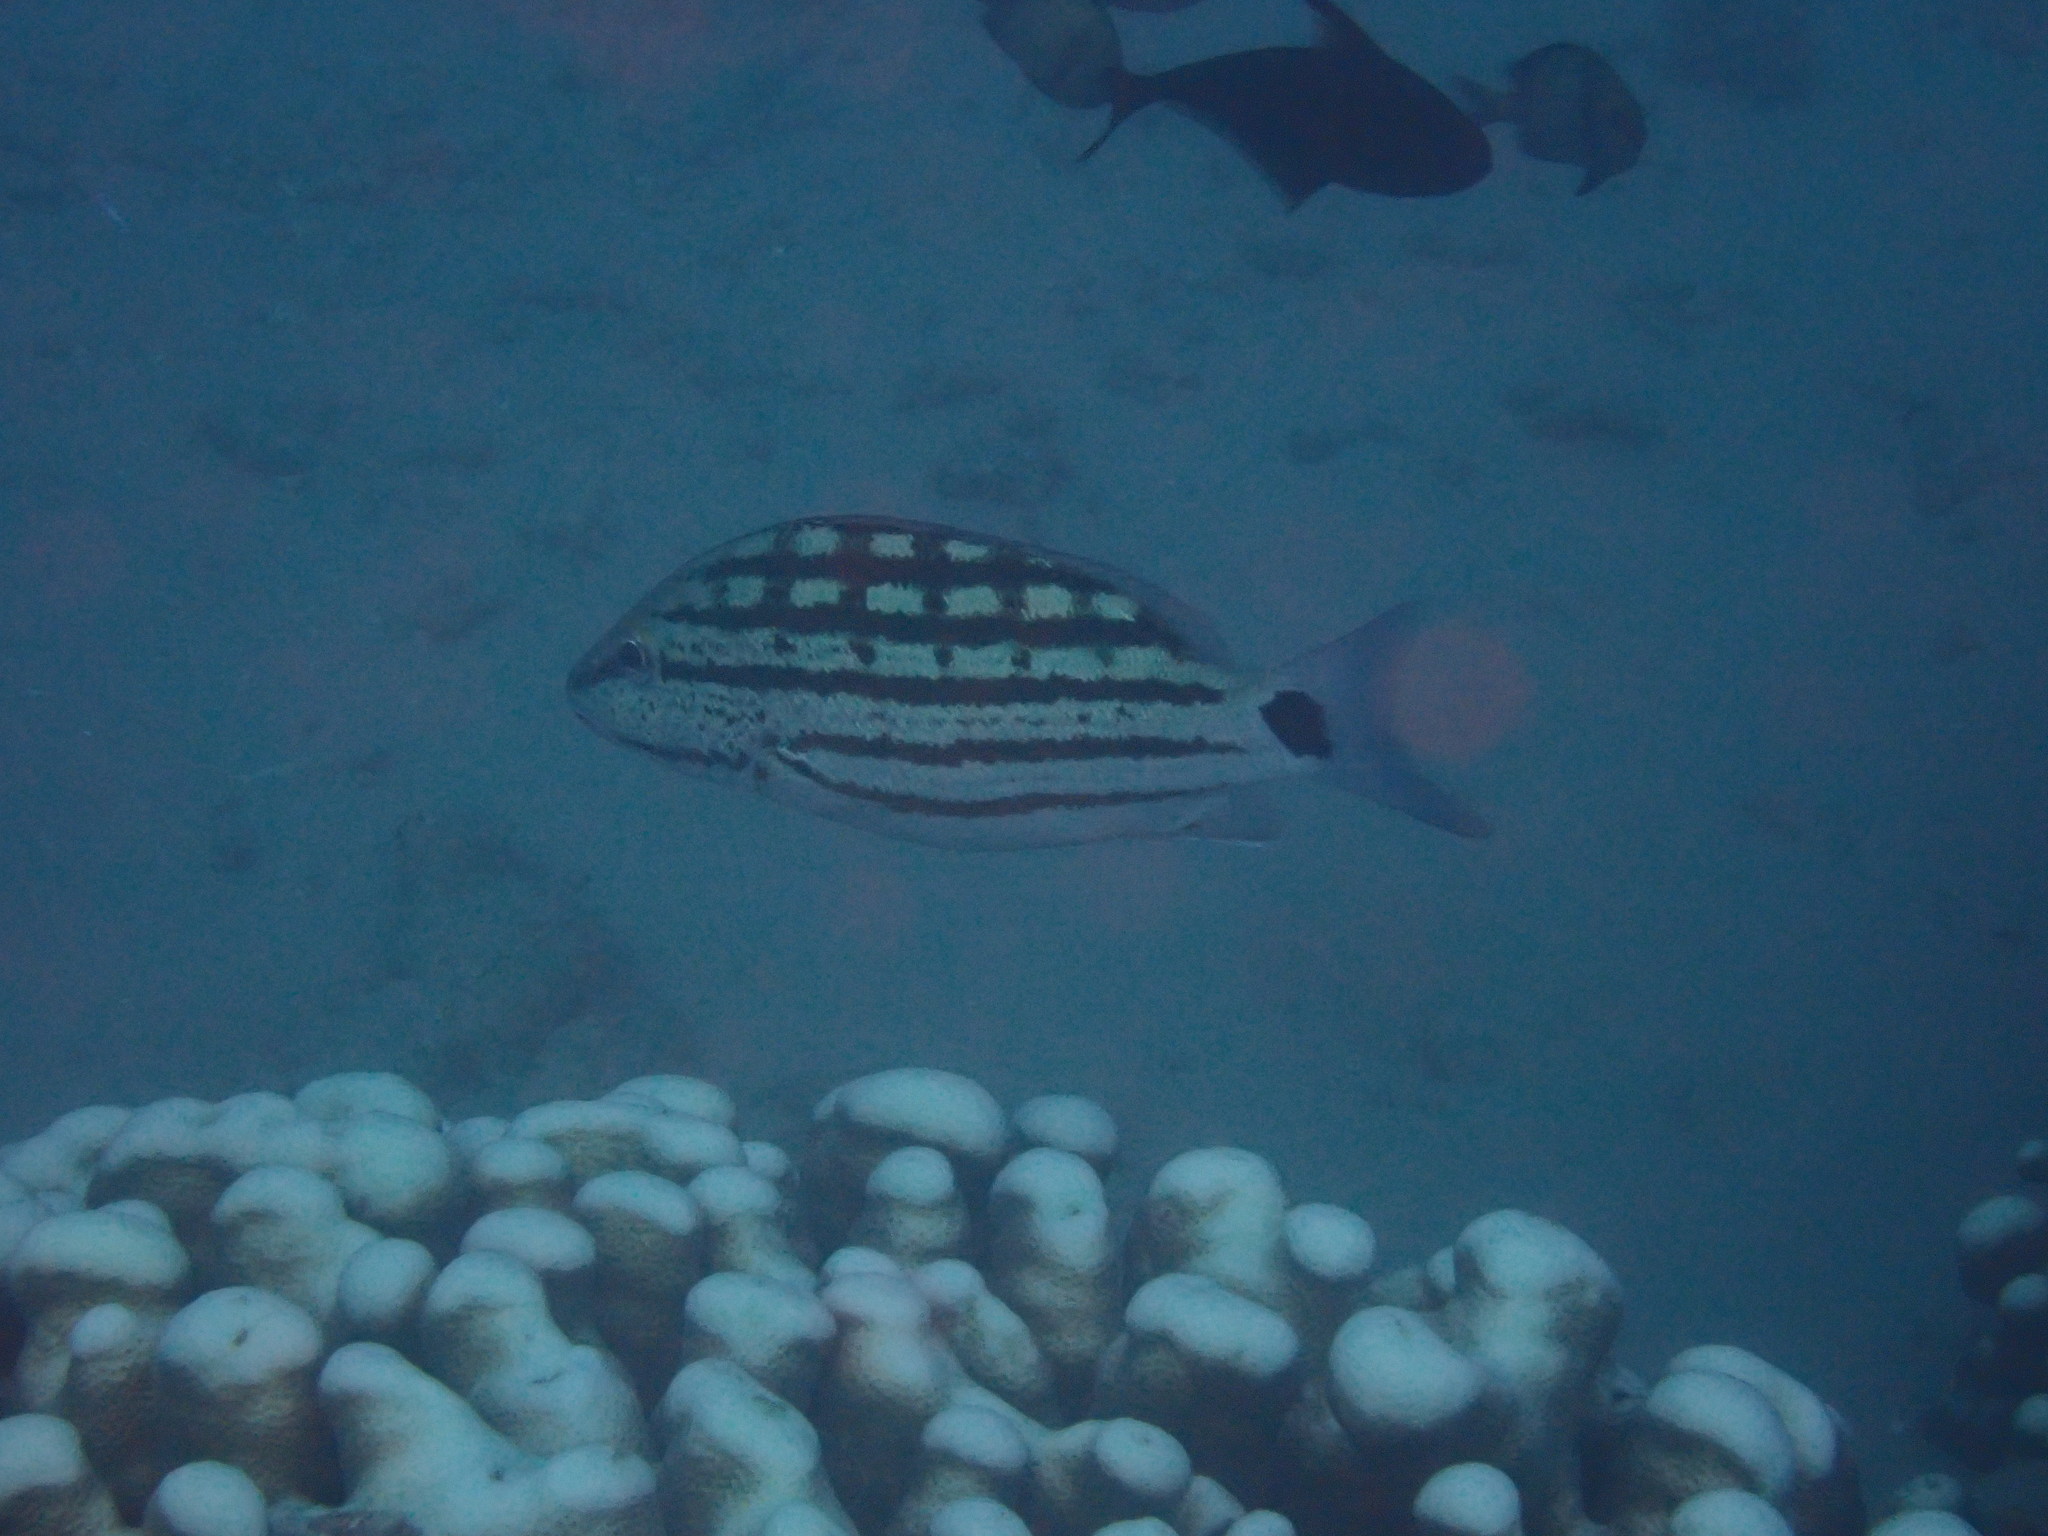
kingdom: Animalia
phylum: Chordata
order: Perciformes
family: Lutjanidae
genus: Lutjanus
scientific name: Lutjanus decussatus
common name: Checkered snapper
